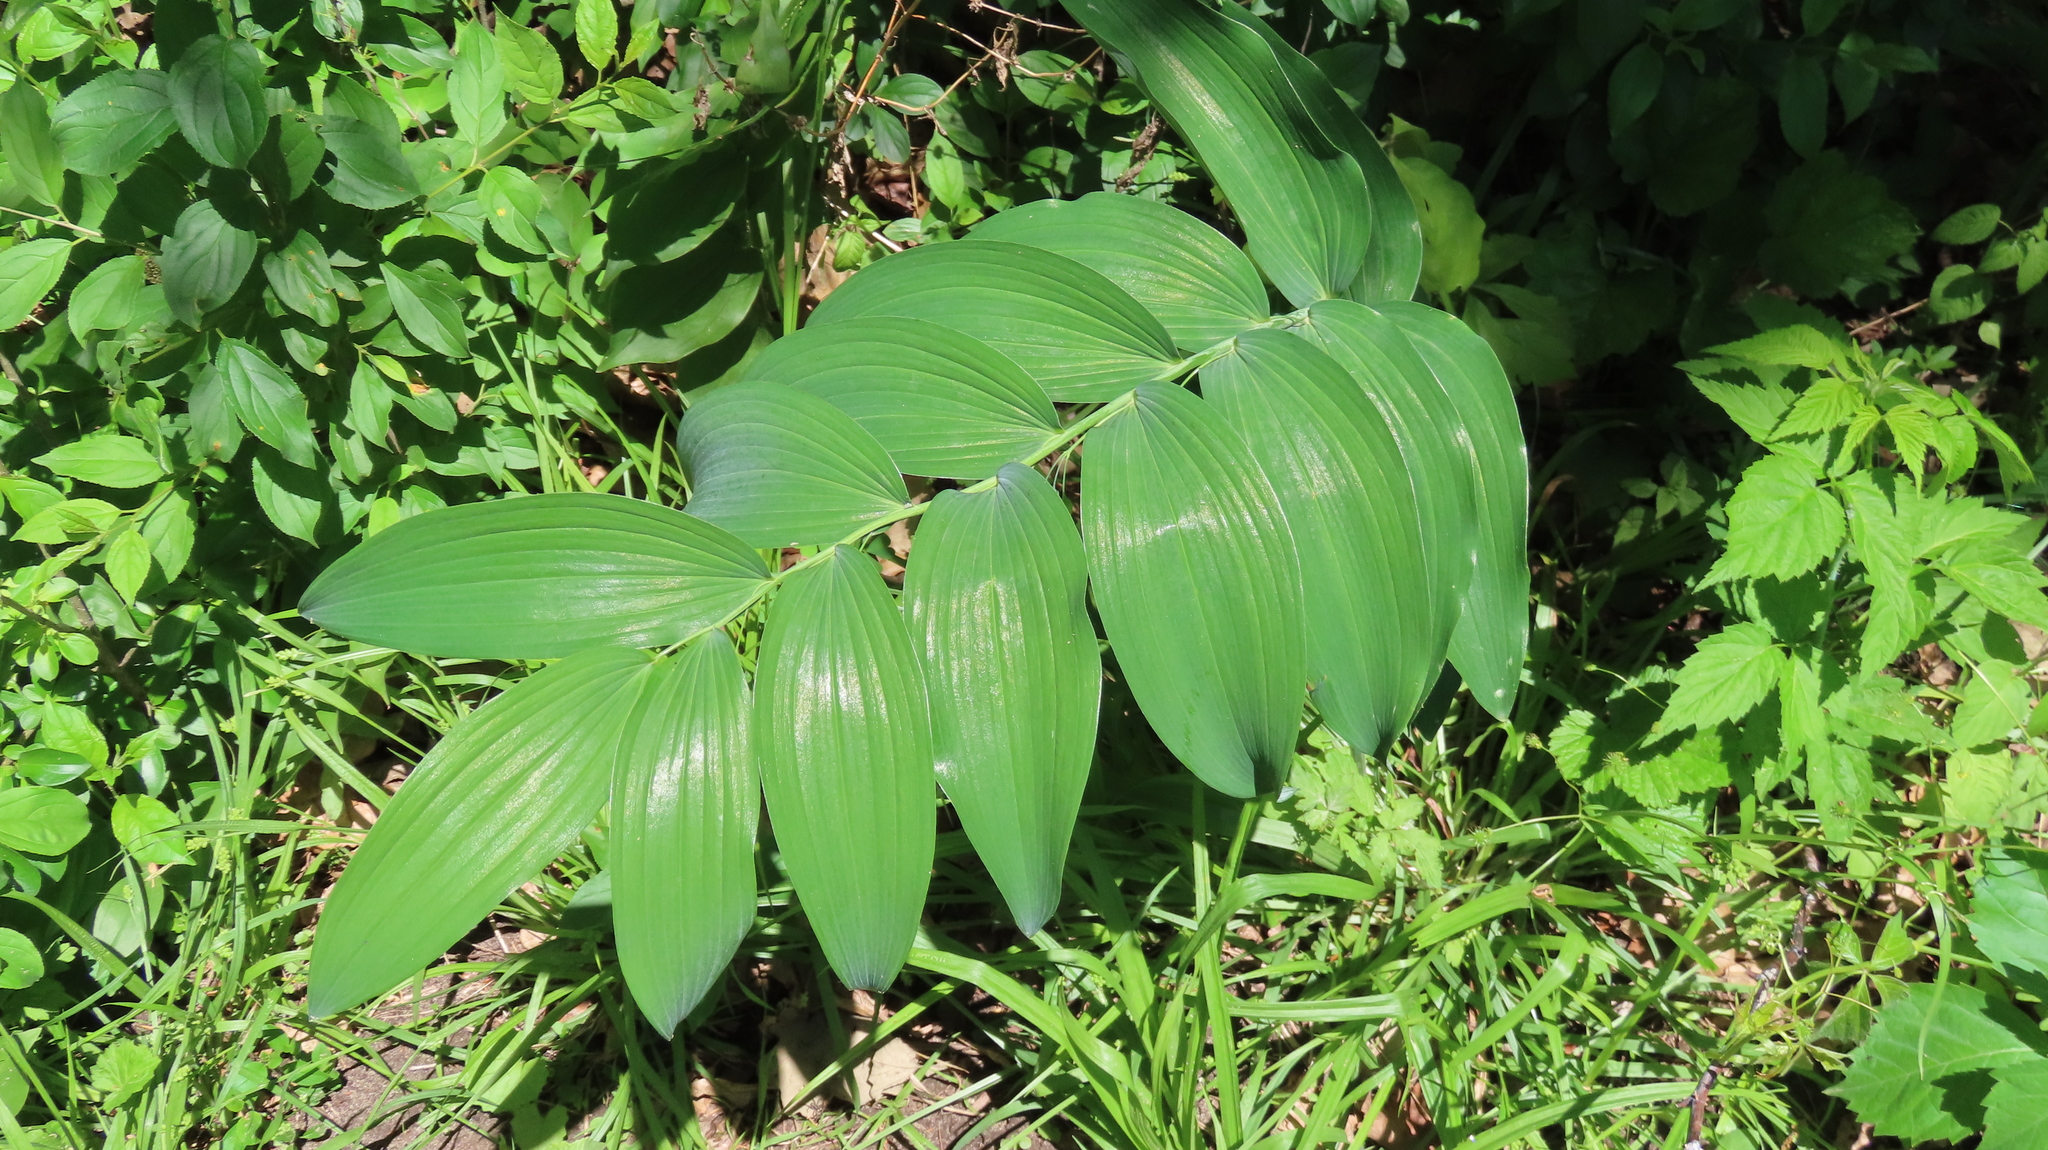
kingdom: Plantae
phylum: Tracheophyta
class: Liliopsida
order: Asparagales
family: Asparagaceae
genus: Polygonatum
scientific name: Polygonatum biflorum
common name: American solomon's-seal
